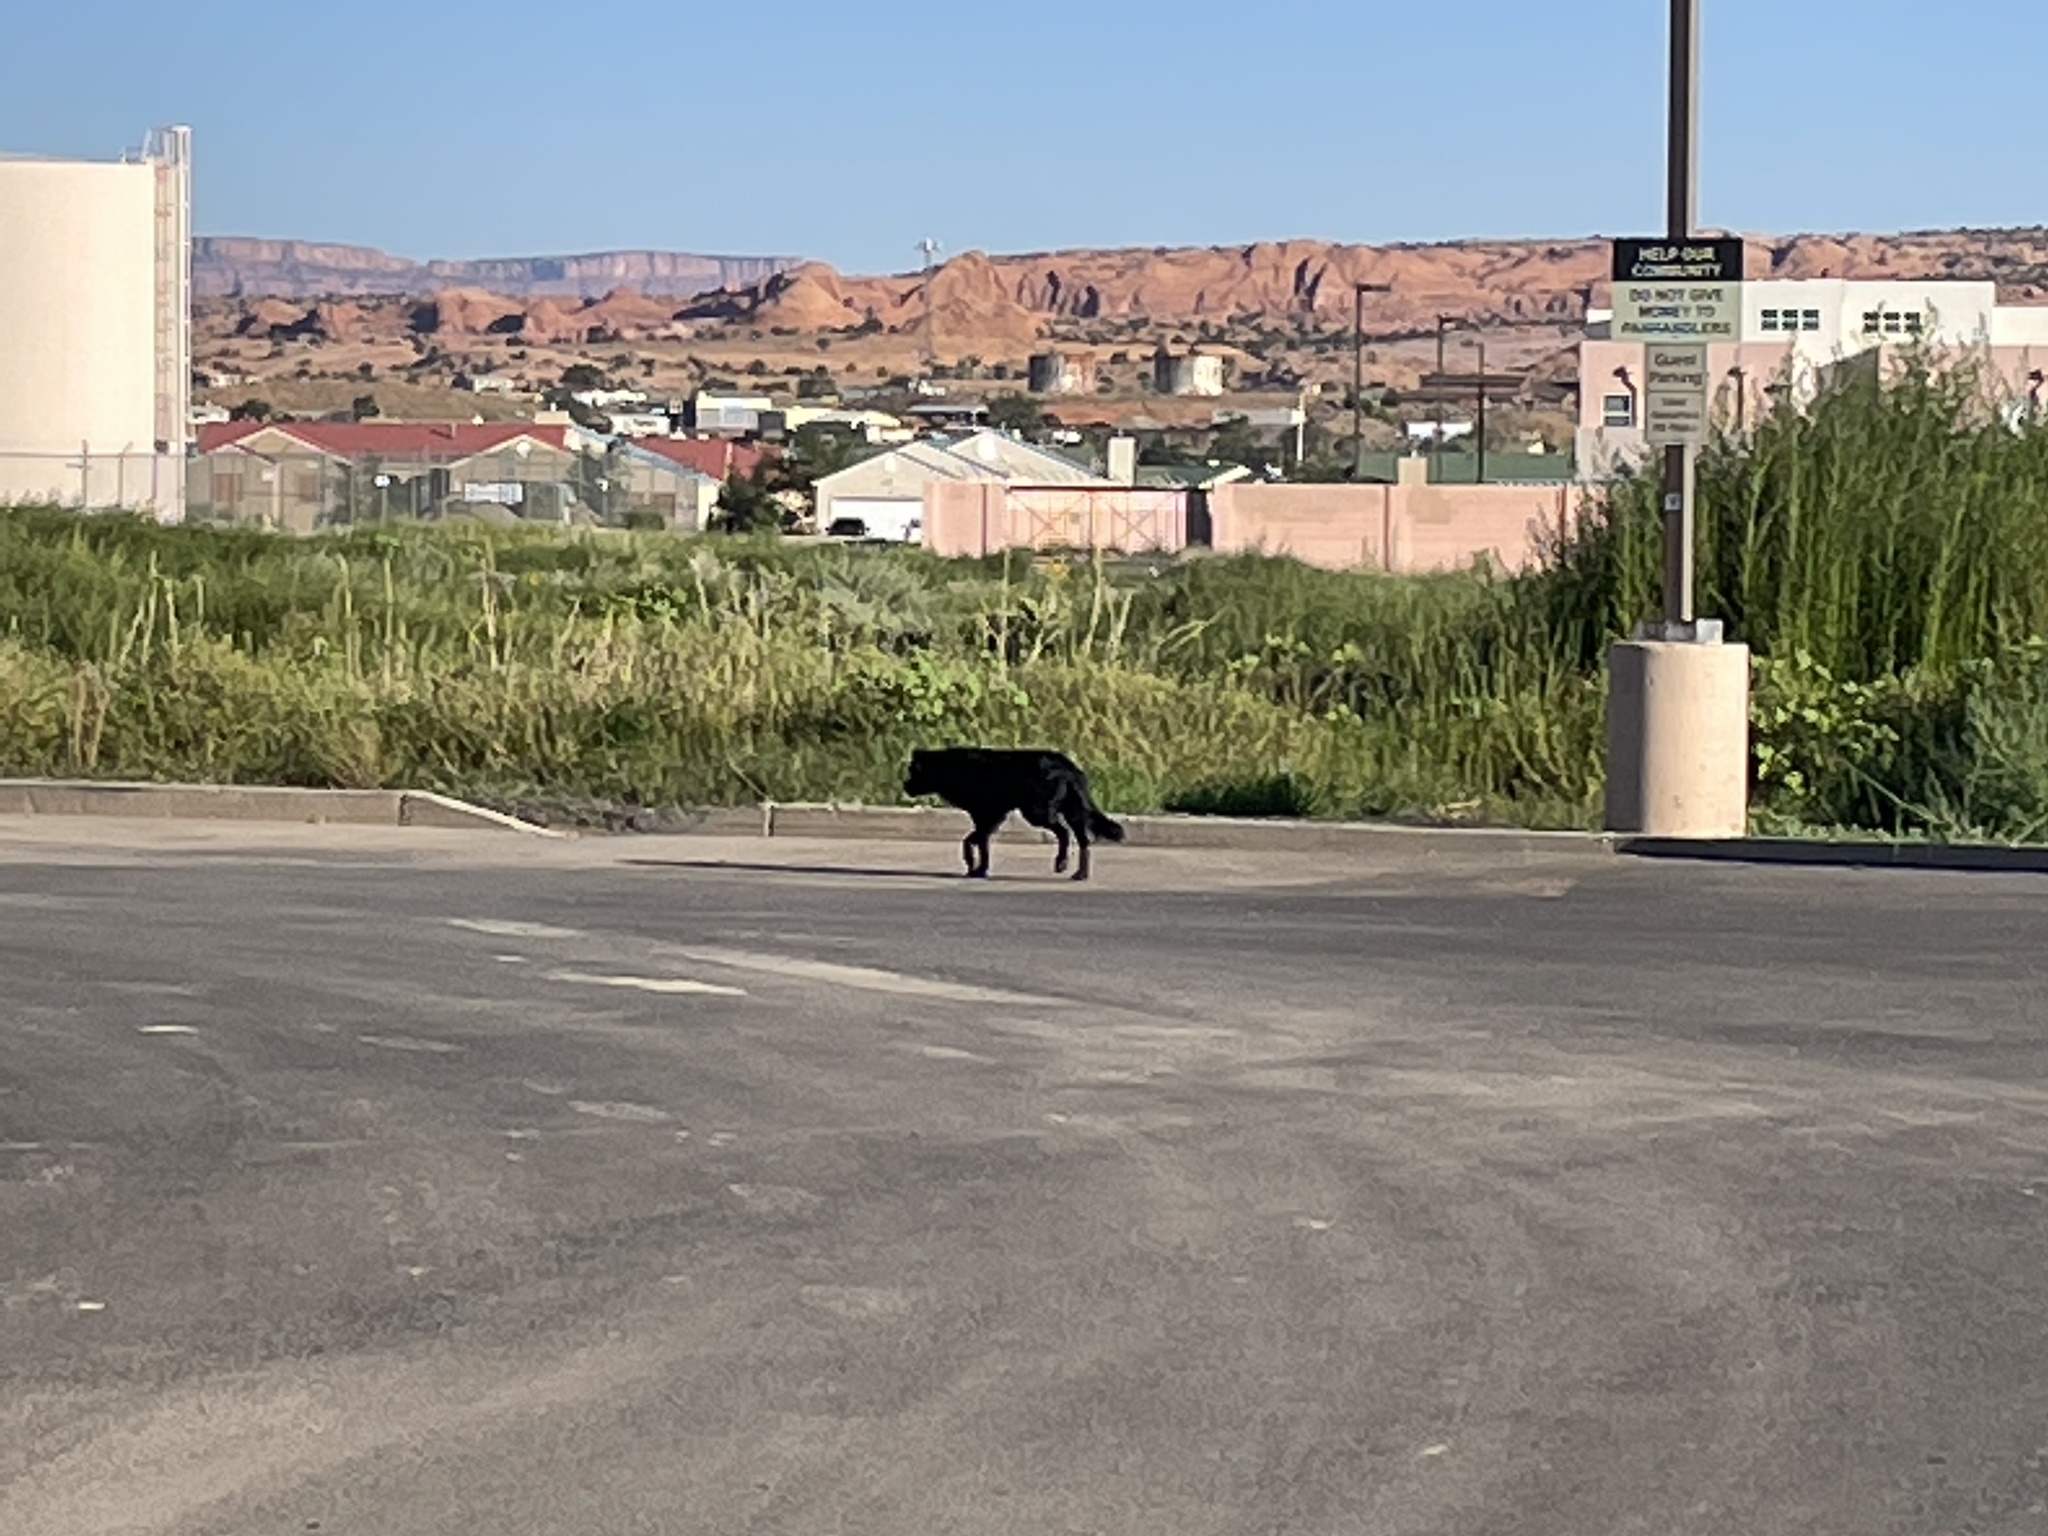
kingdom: Animalia
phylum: Chordata
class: Mammalia
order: Carnivora
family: Canidae
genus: Canis
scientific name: Canis lupus
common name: Gray wolf
